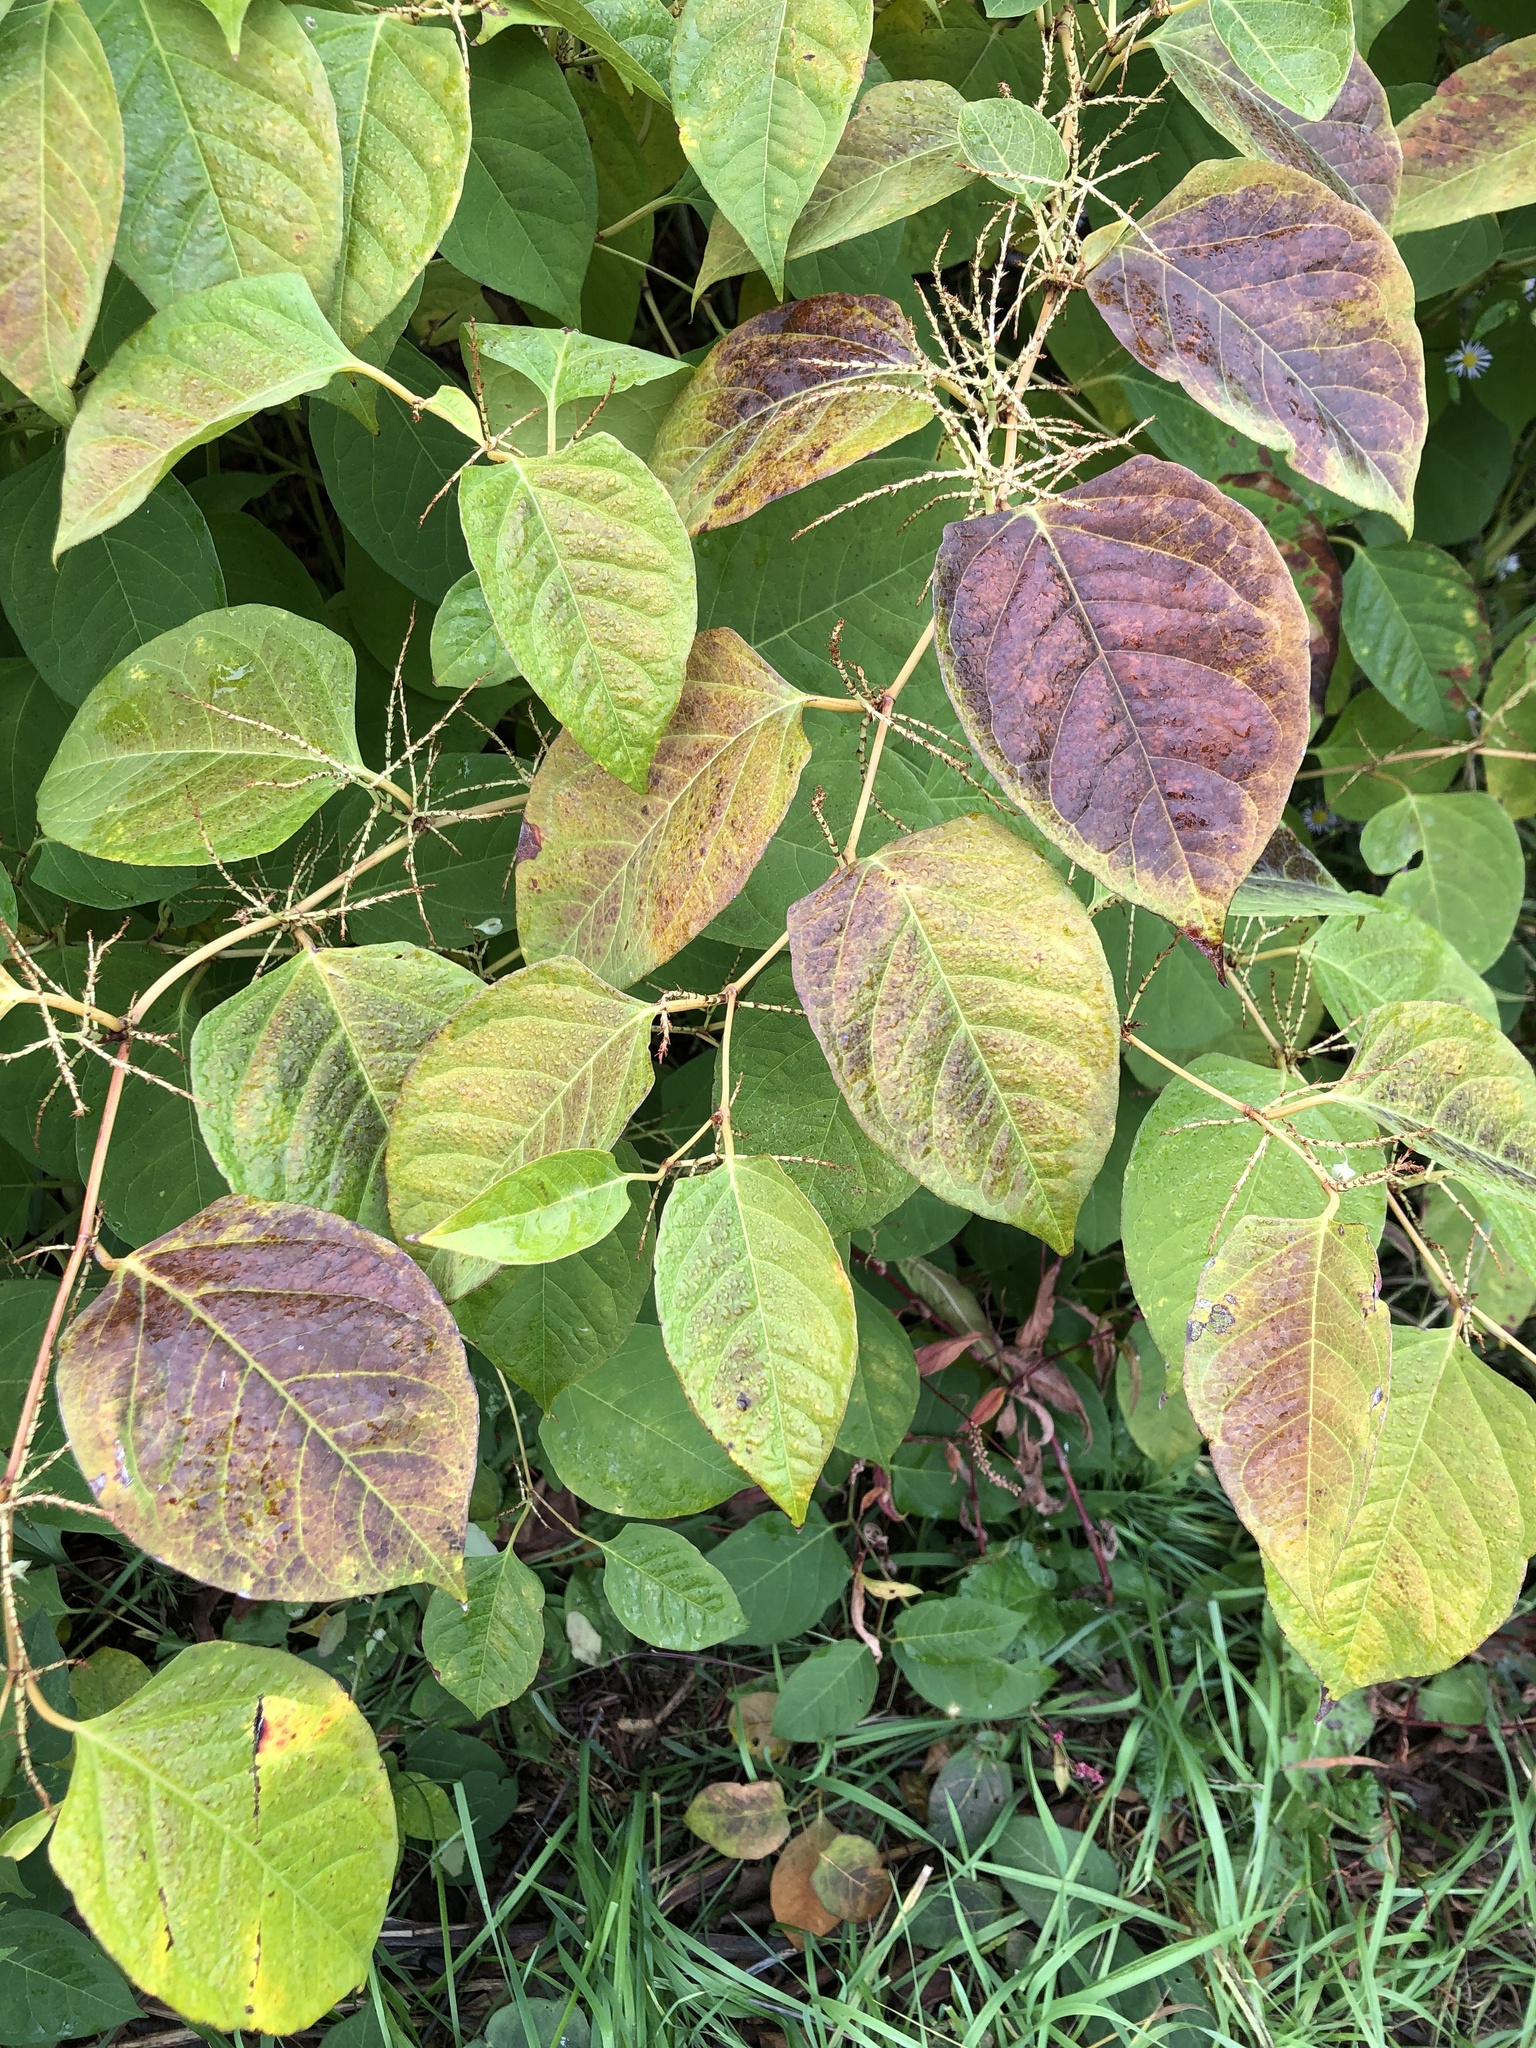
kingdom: Plantae
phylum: Tracheophyta
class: Magnoliopsida
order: Caryophyllales
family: Polygonaceae
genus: Reynoutria
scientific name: Reynoutria japonica
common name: Japanese knotweed
